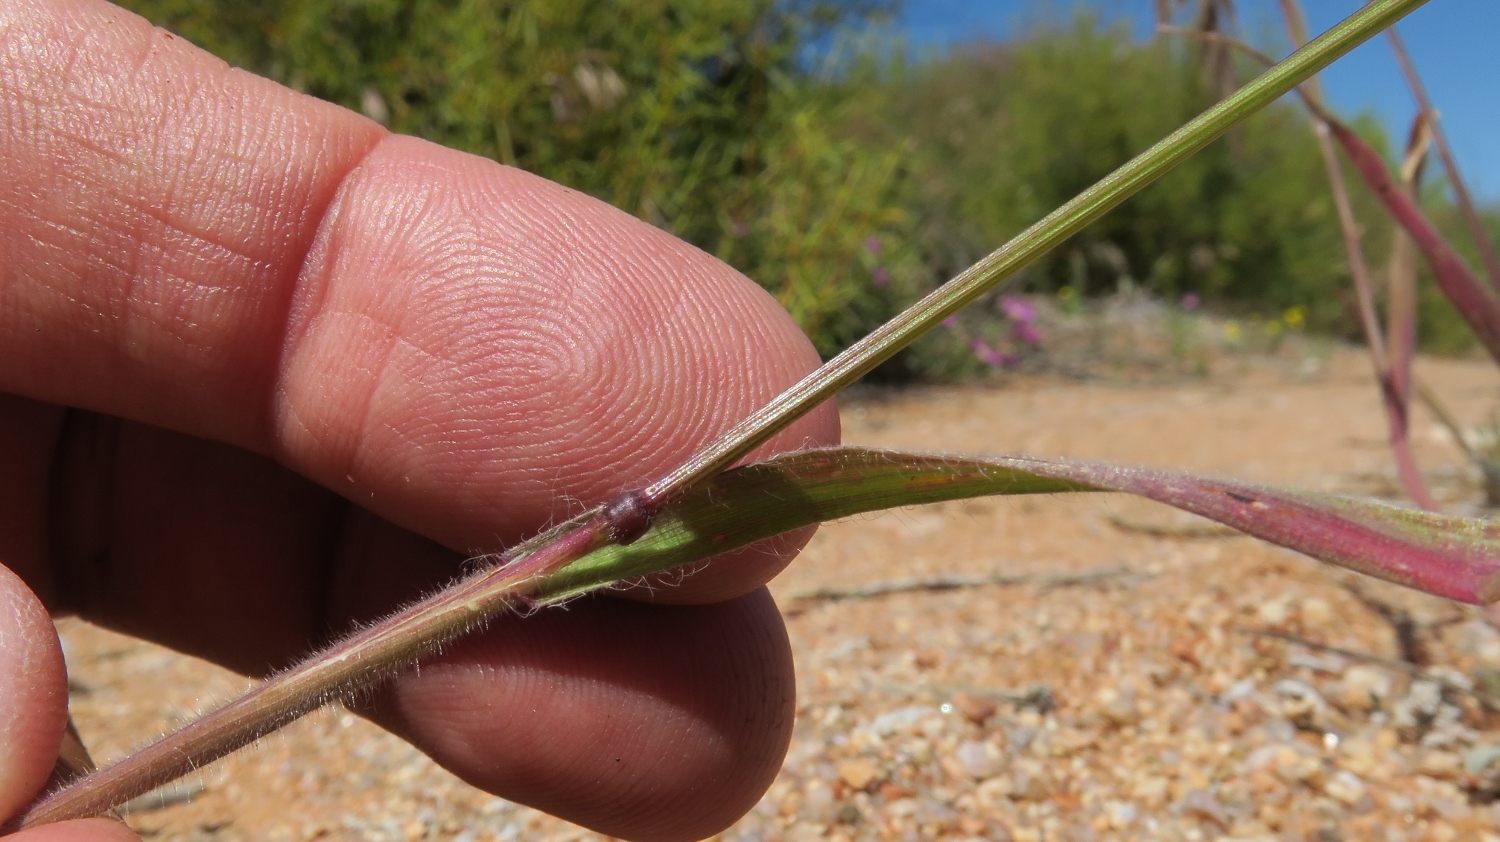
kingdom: Plantae
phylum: Tracheophyta
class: Liliopsida
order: Poales
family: Poaceae
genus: Bromus
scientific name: Bromus pectinatus
